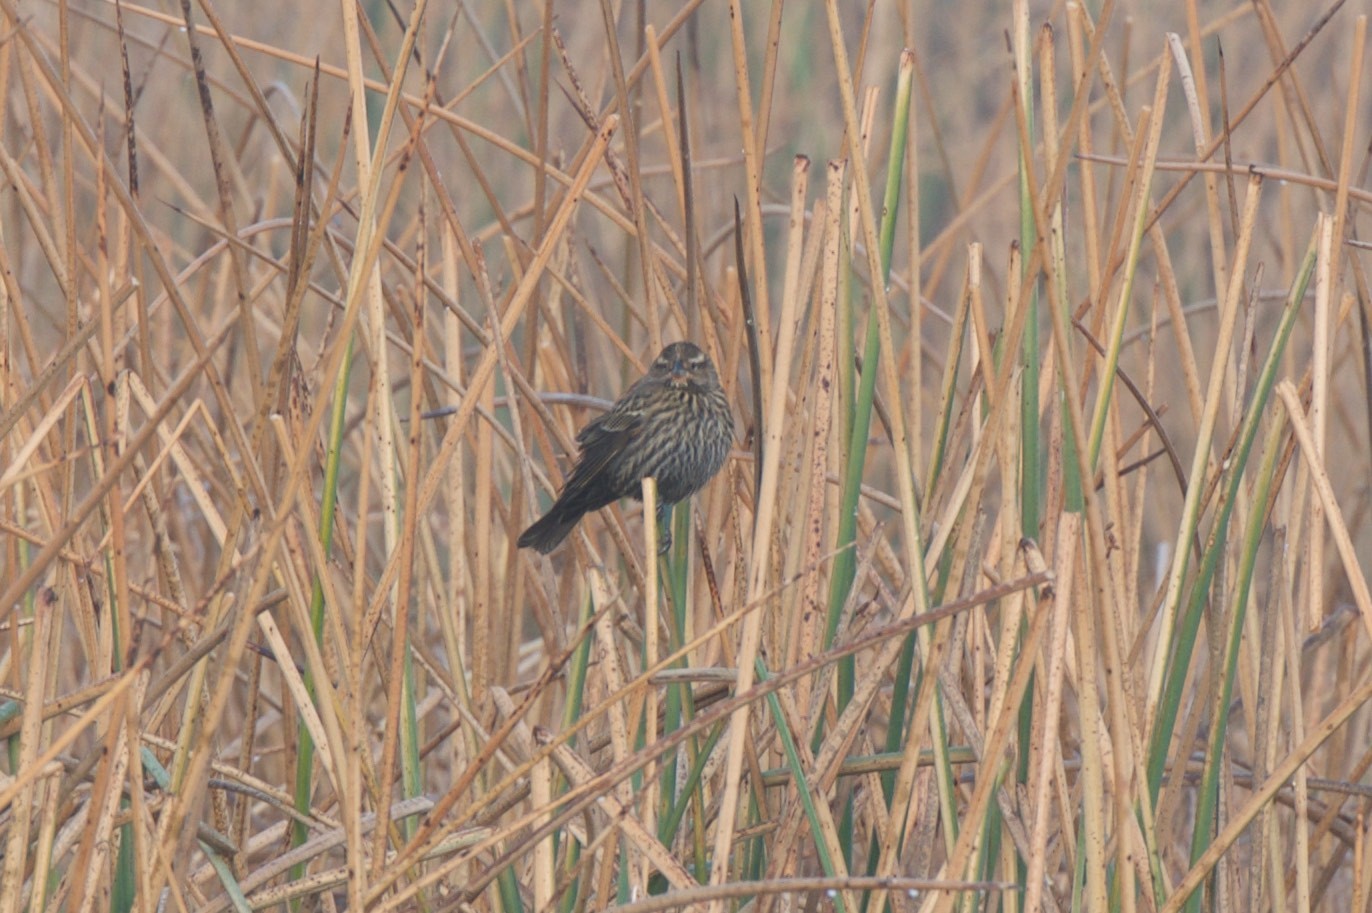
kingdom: Animalia
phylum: Chordata
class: Aves
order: Passeriformes
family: Icteridae
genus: Agelaius
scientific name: Agelaius phoeniceus
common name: Red-winged blackbird
